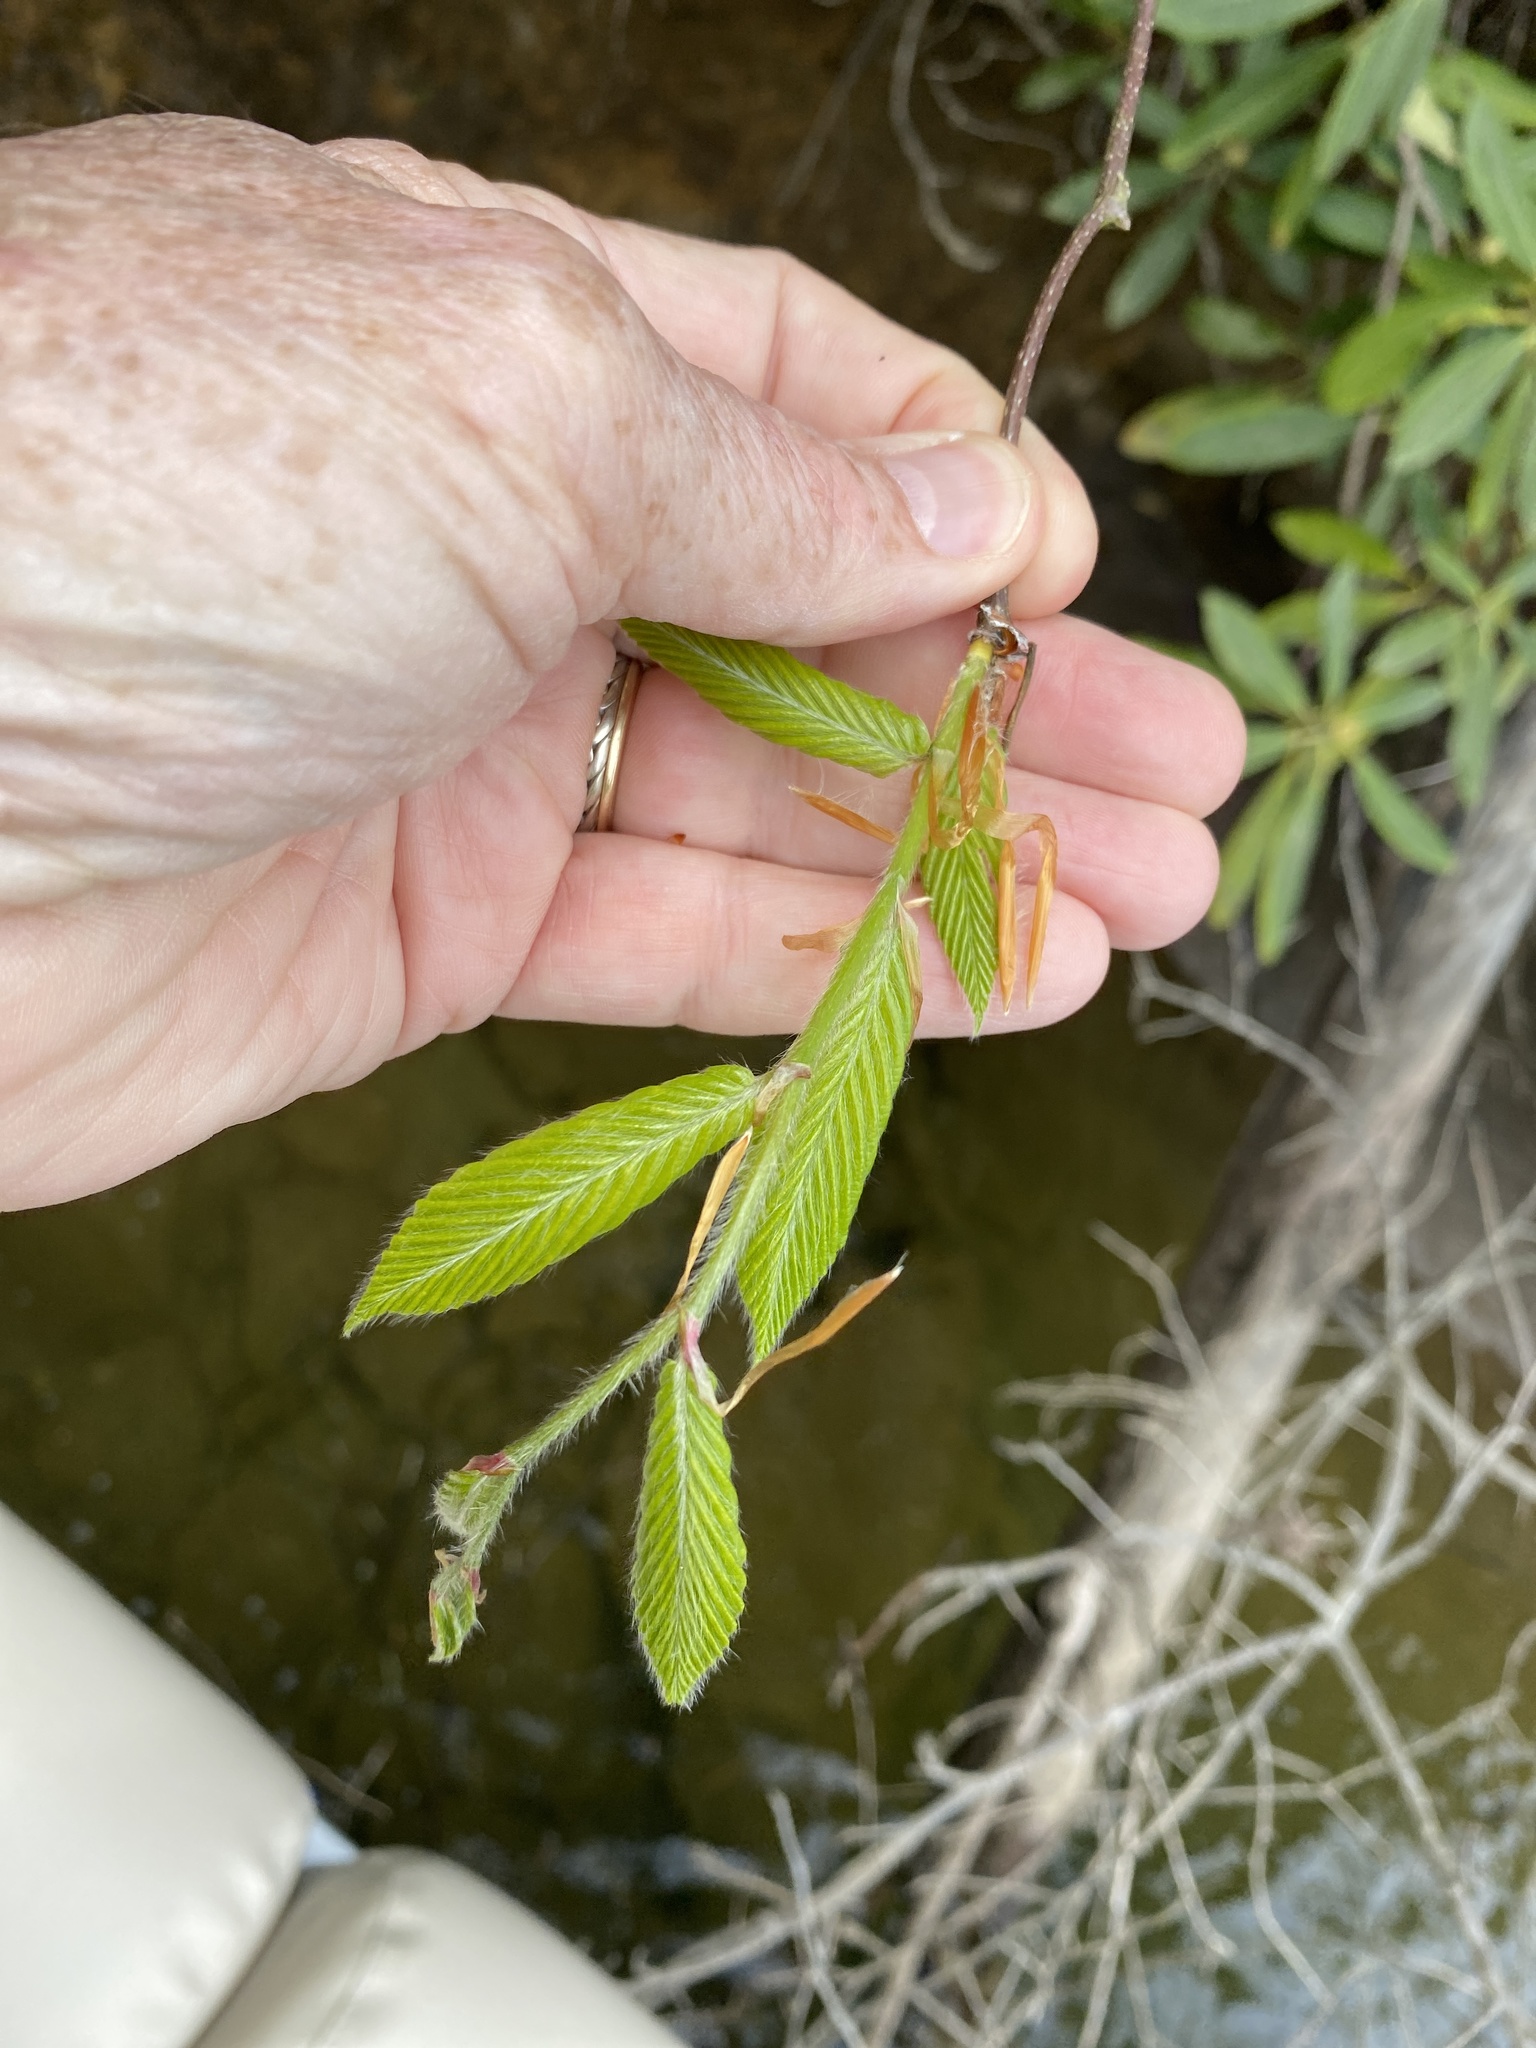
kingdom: Plantae
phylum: Tracheophyta
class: Magnoliopsida
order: Fagales
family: Fagaceae
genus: Fagus
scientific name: Fagus grandifolia
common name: American beech
